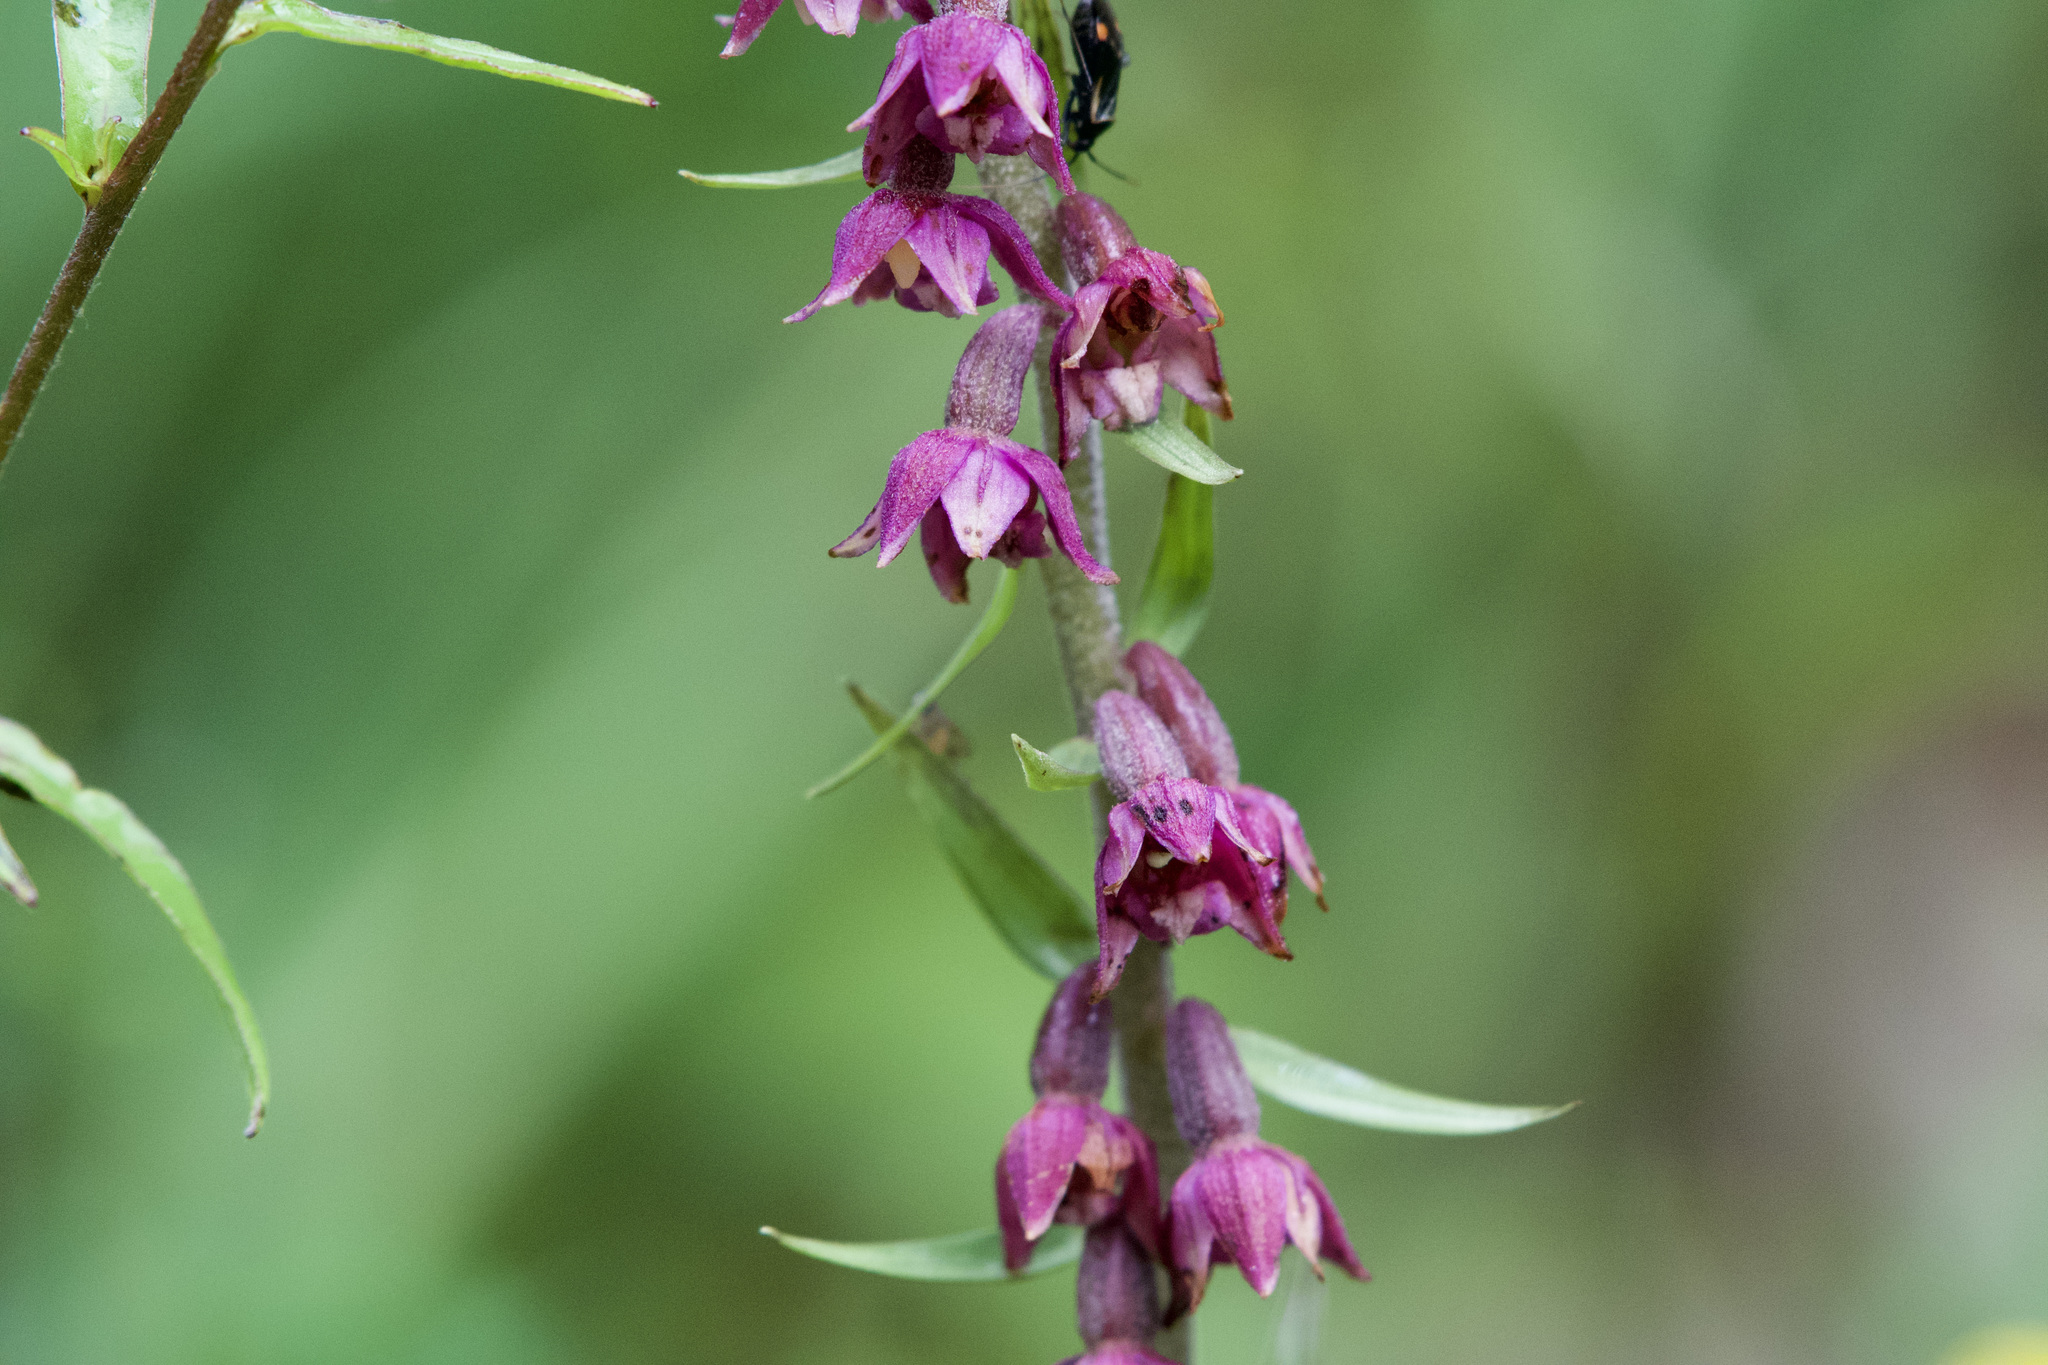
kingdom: Plantae
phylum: Tracheophyta
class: Liliopsida
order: Asparagales
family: Orchidaceae
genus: Epipactis
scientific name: Epipactis atrorubens
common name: Dark-red helleborine
